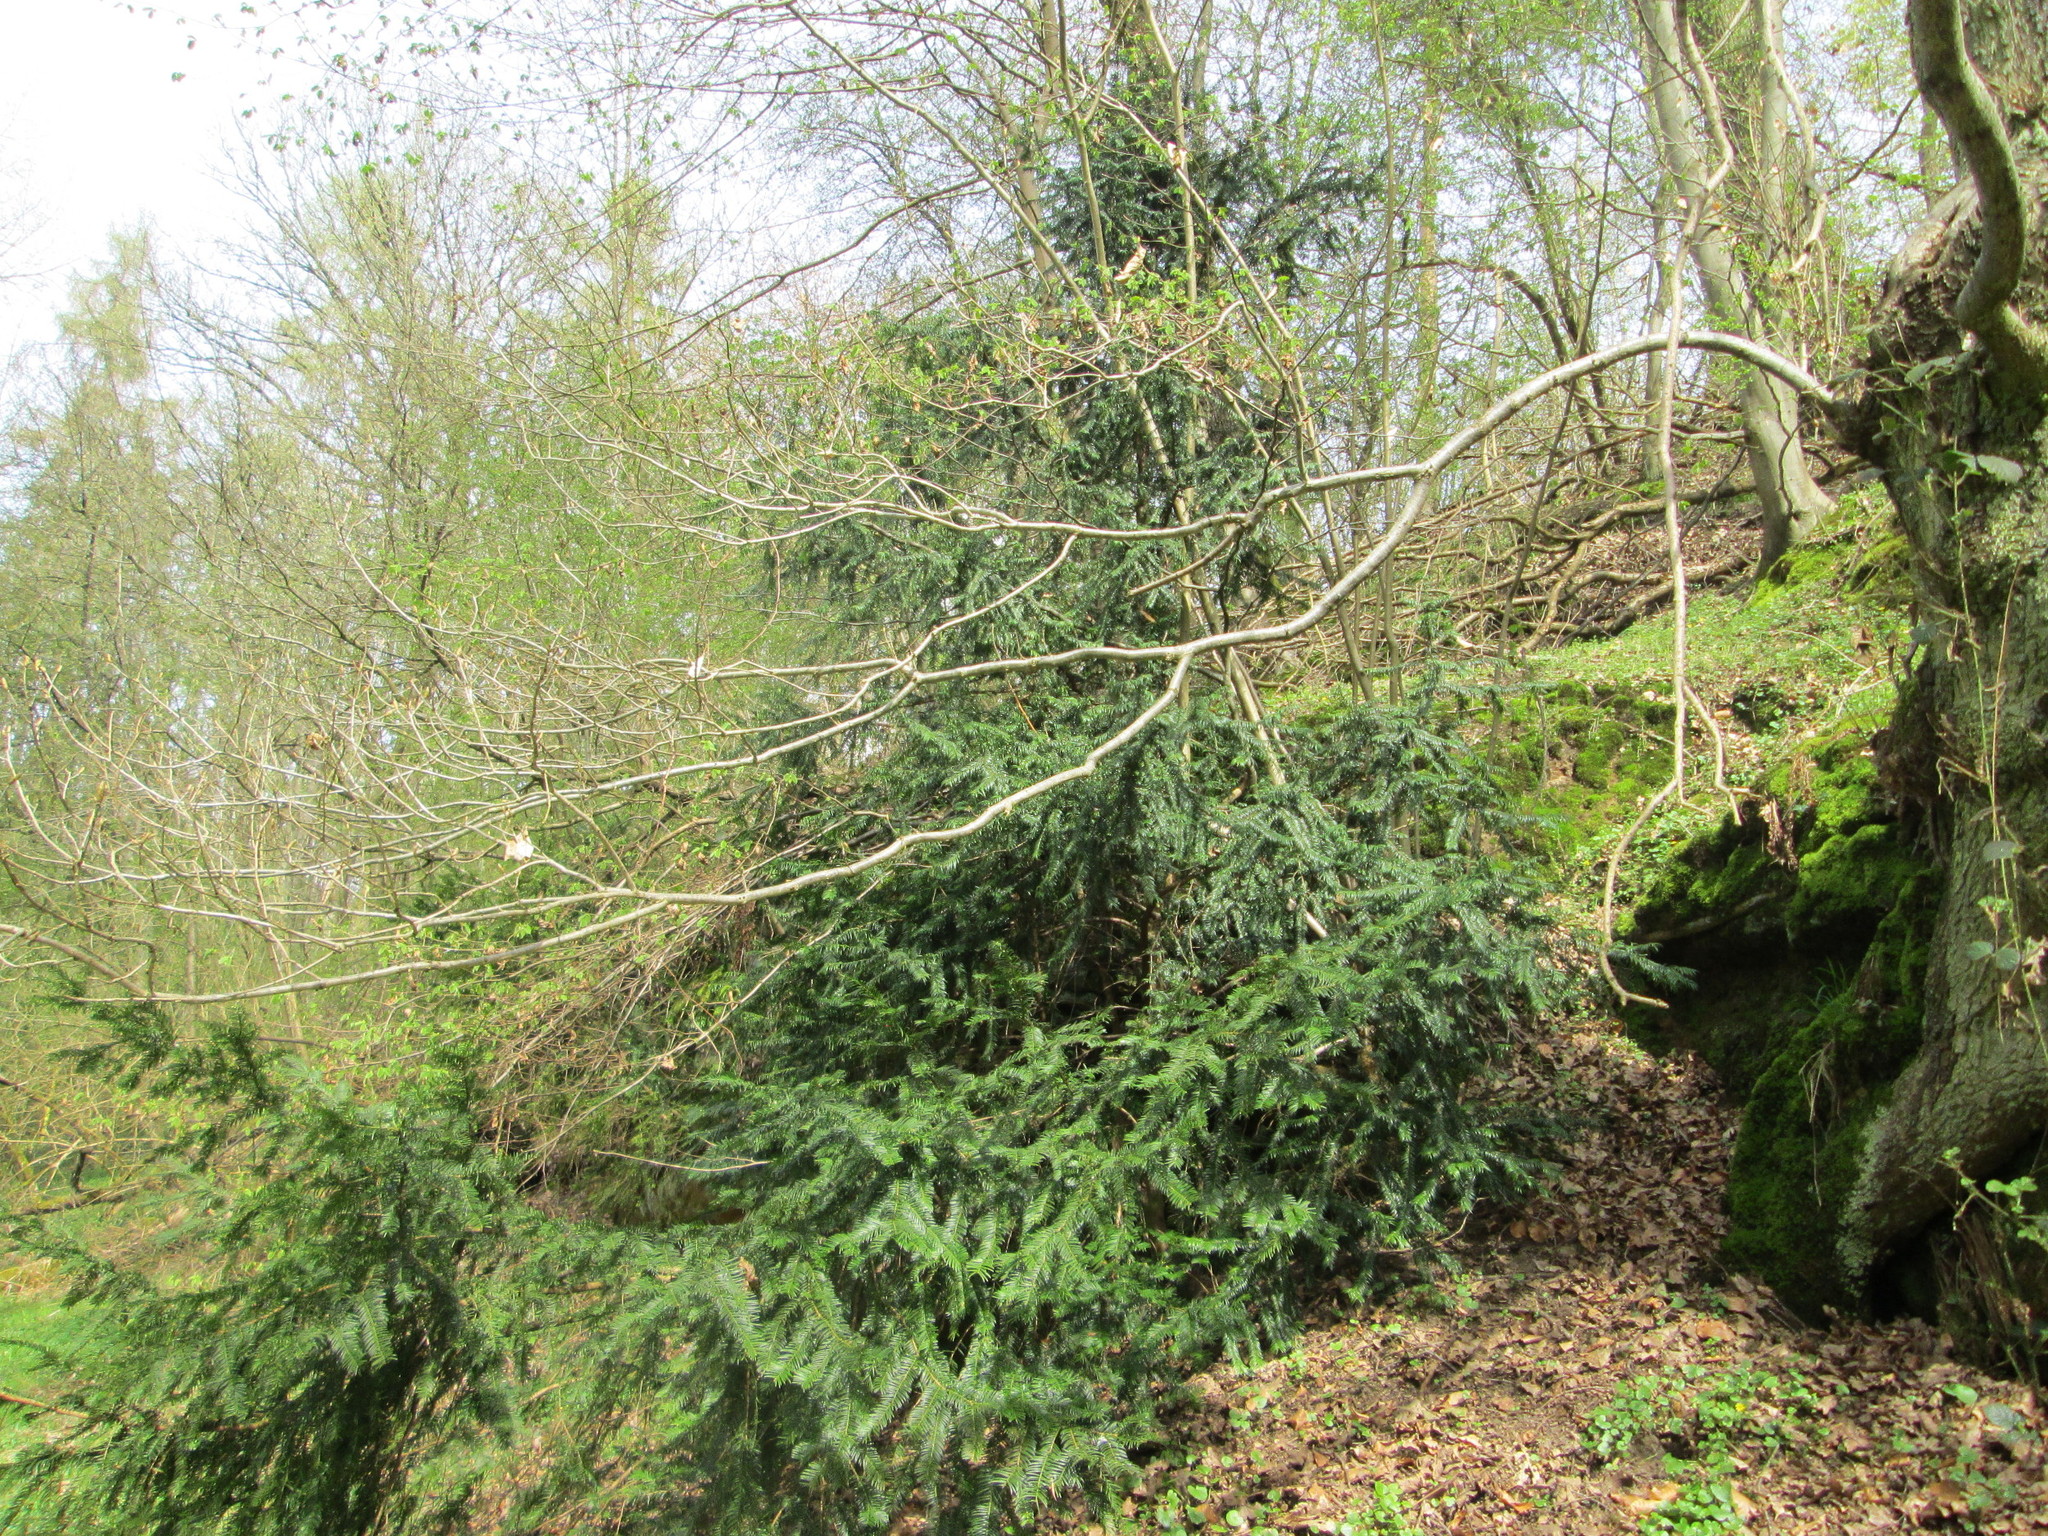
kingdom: Plantae
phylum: Tracheophyta
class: Pinopsida
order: Pinales
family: Taxaceae
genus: Taxus
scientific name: Taxus baccata
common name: Yew
